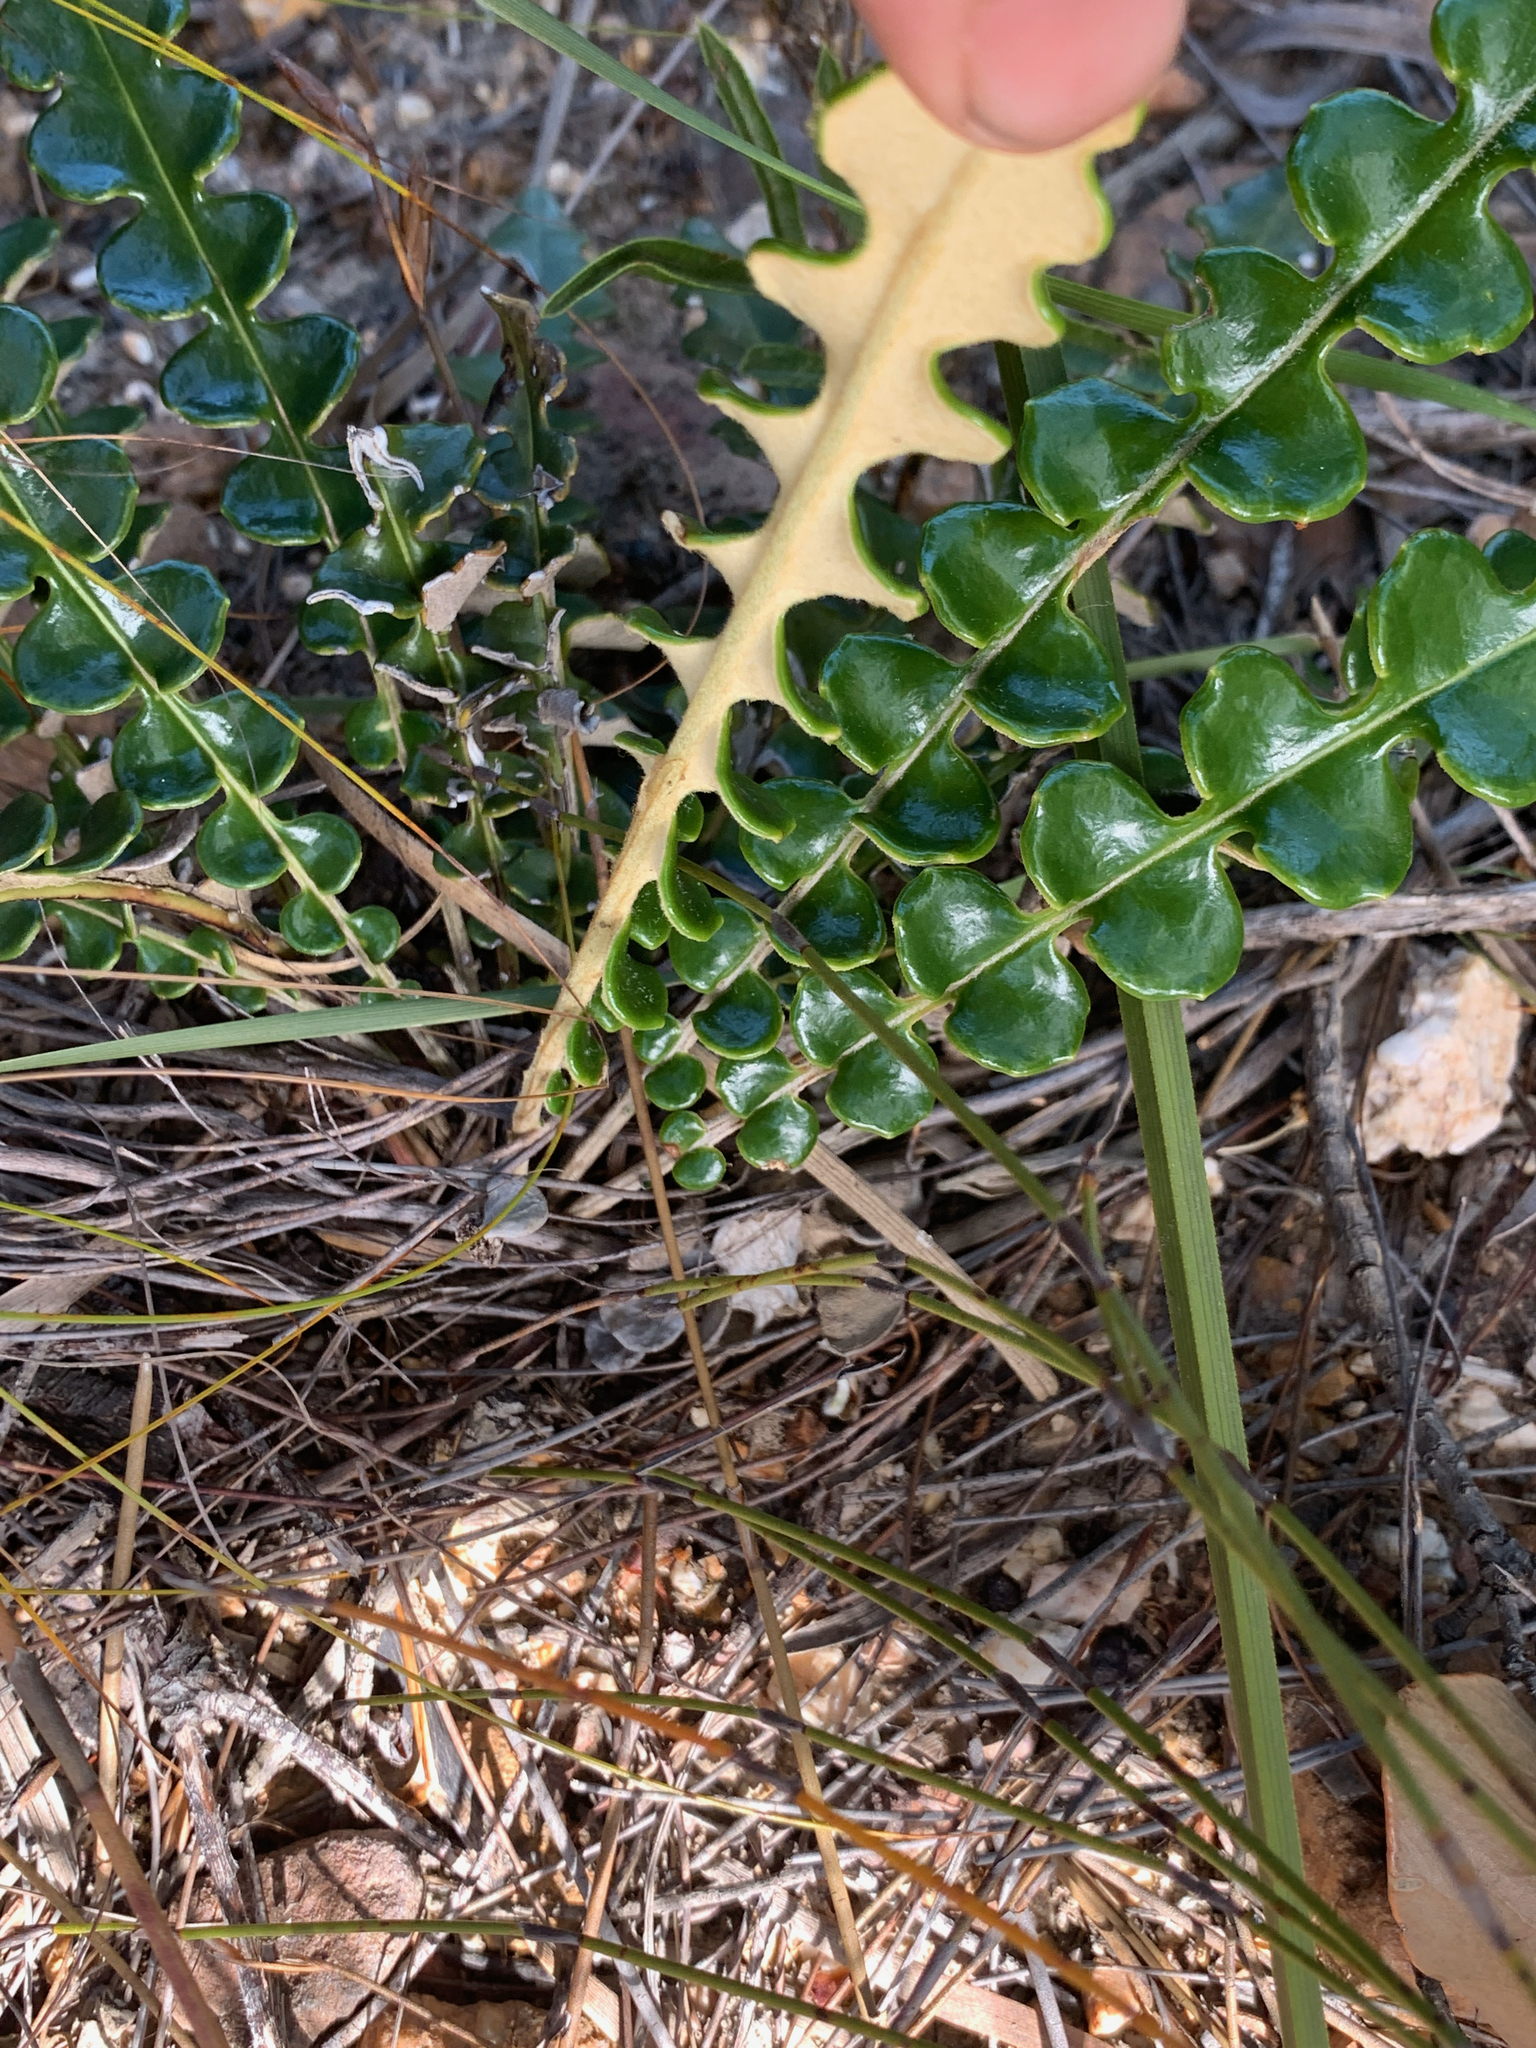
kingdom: Plantae
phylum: Tracheophyta
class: Magnoliopsida
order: Asterales
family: Asteraceae
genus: Gerbera
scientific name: Gerbera linnaei
